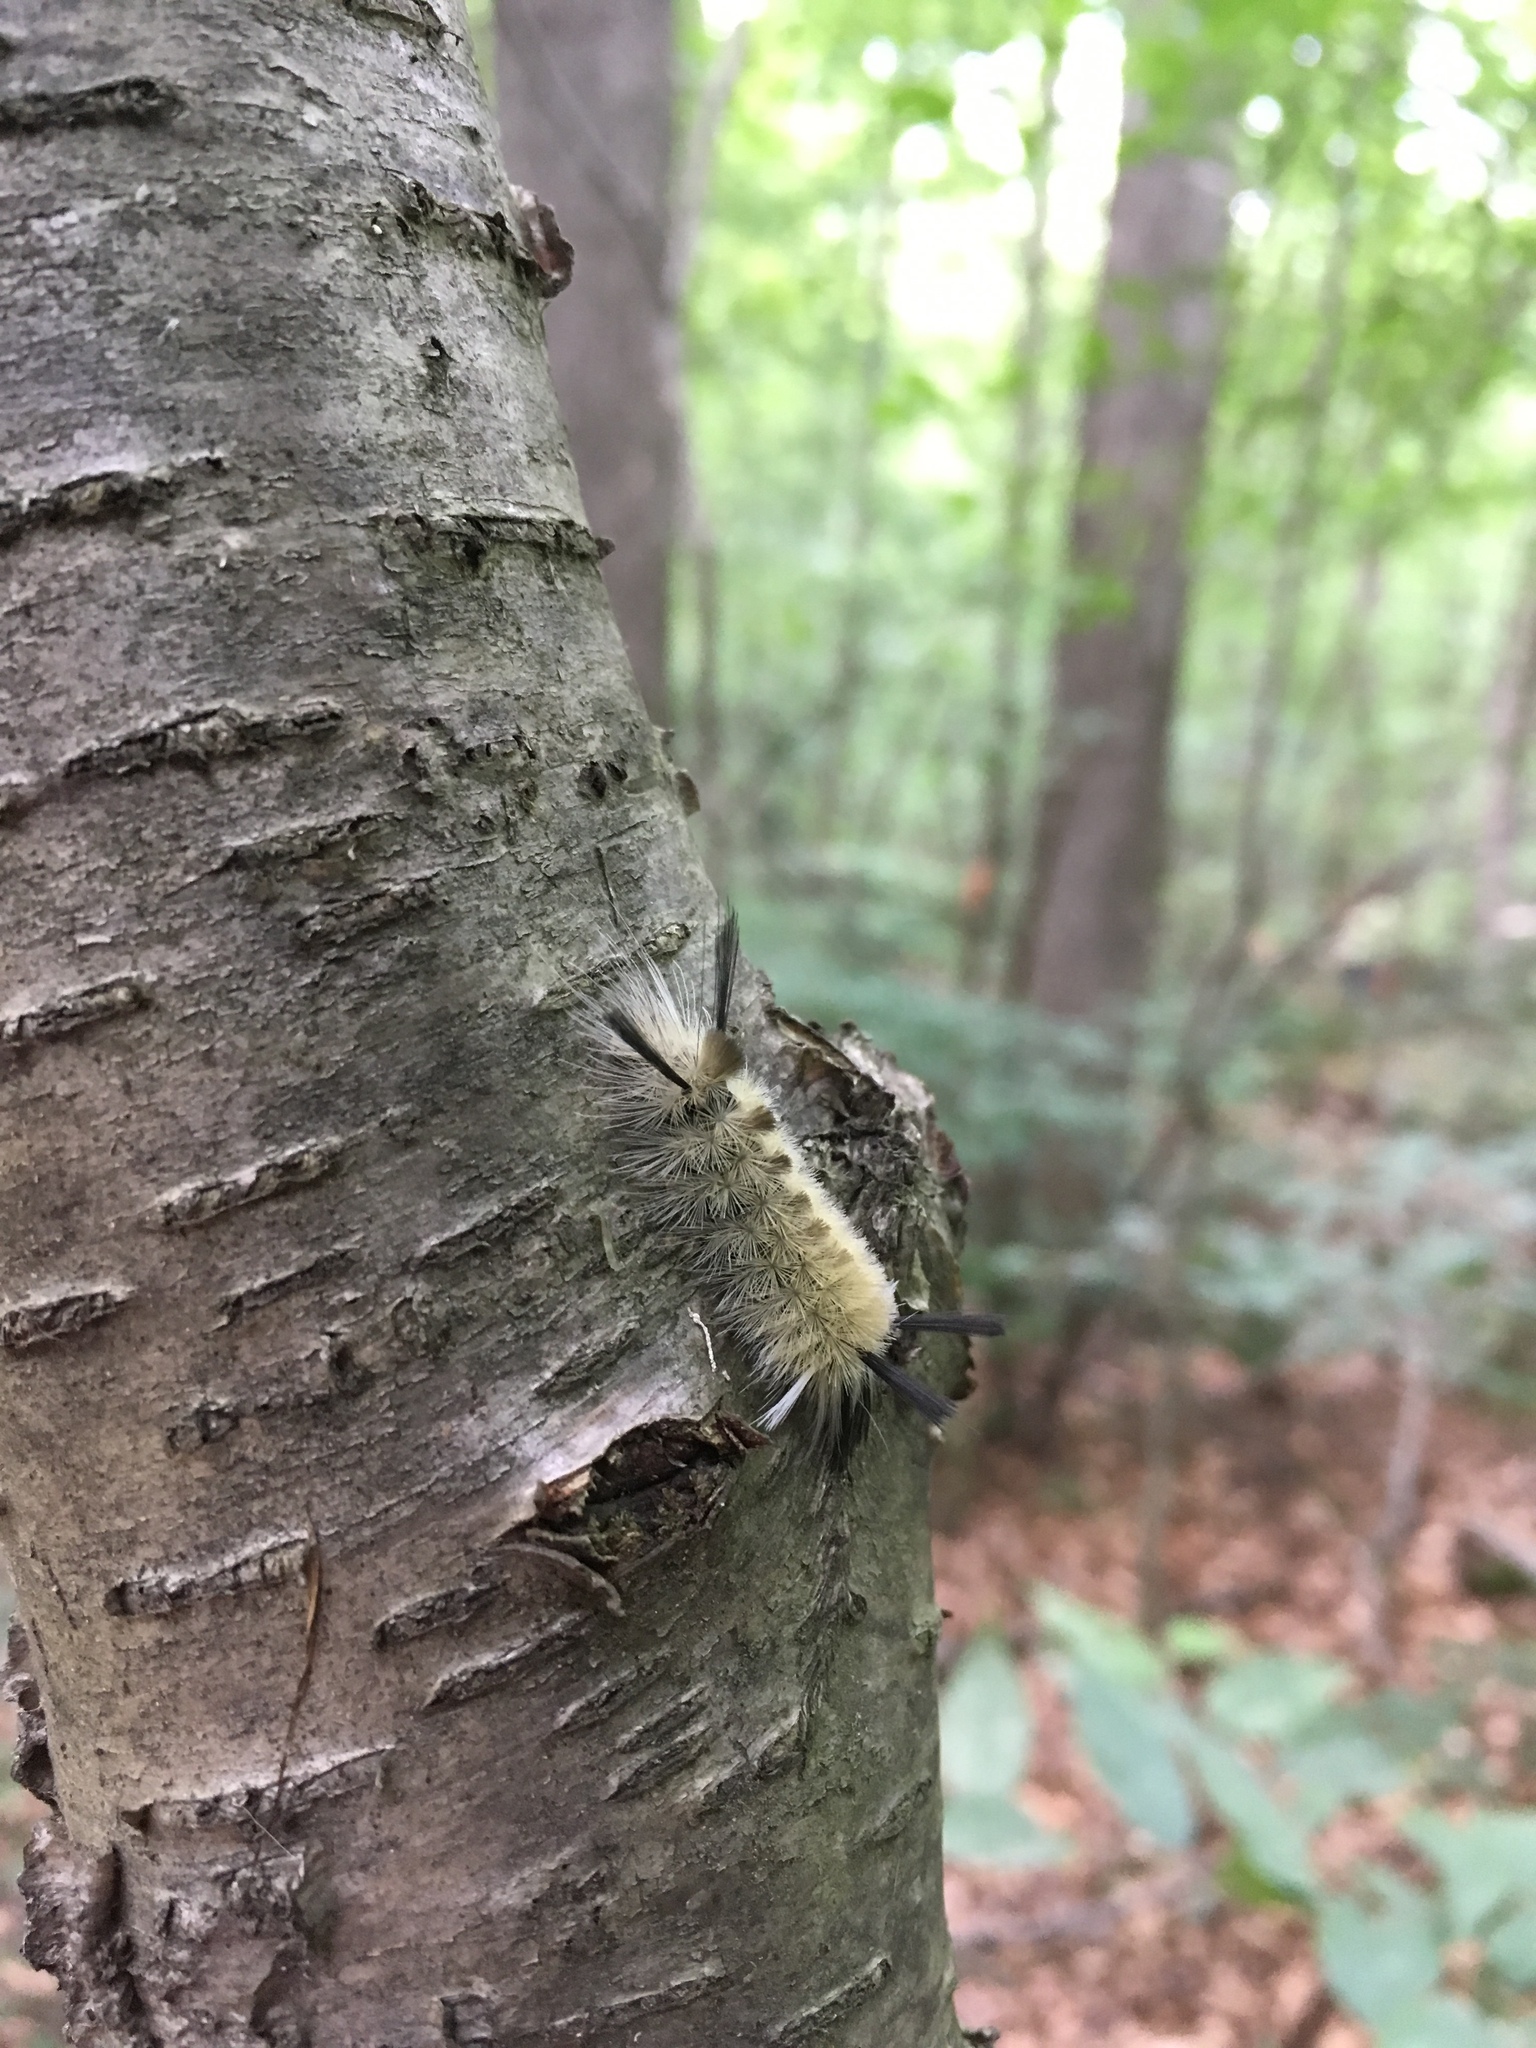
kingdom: Animalia
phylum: Arthropoda
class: Insecta
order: Lepidoptera
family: Erebidae
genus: Halysidota
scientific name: Halysidota tessellaris
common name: Banded tussock moth
